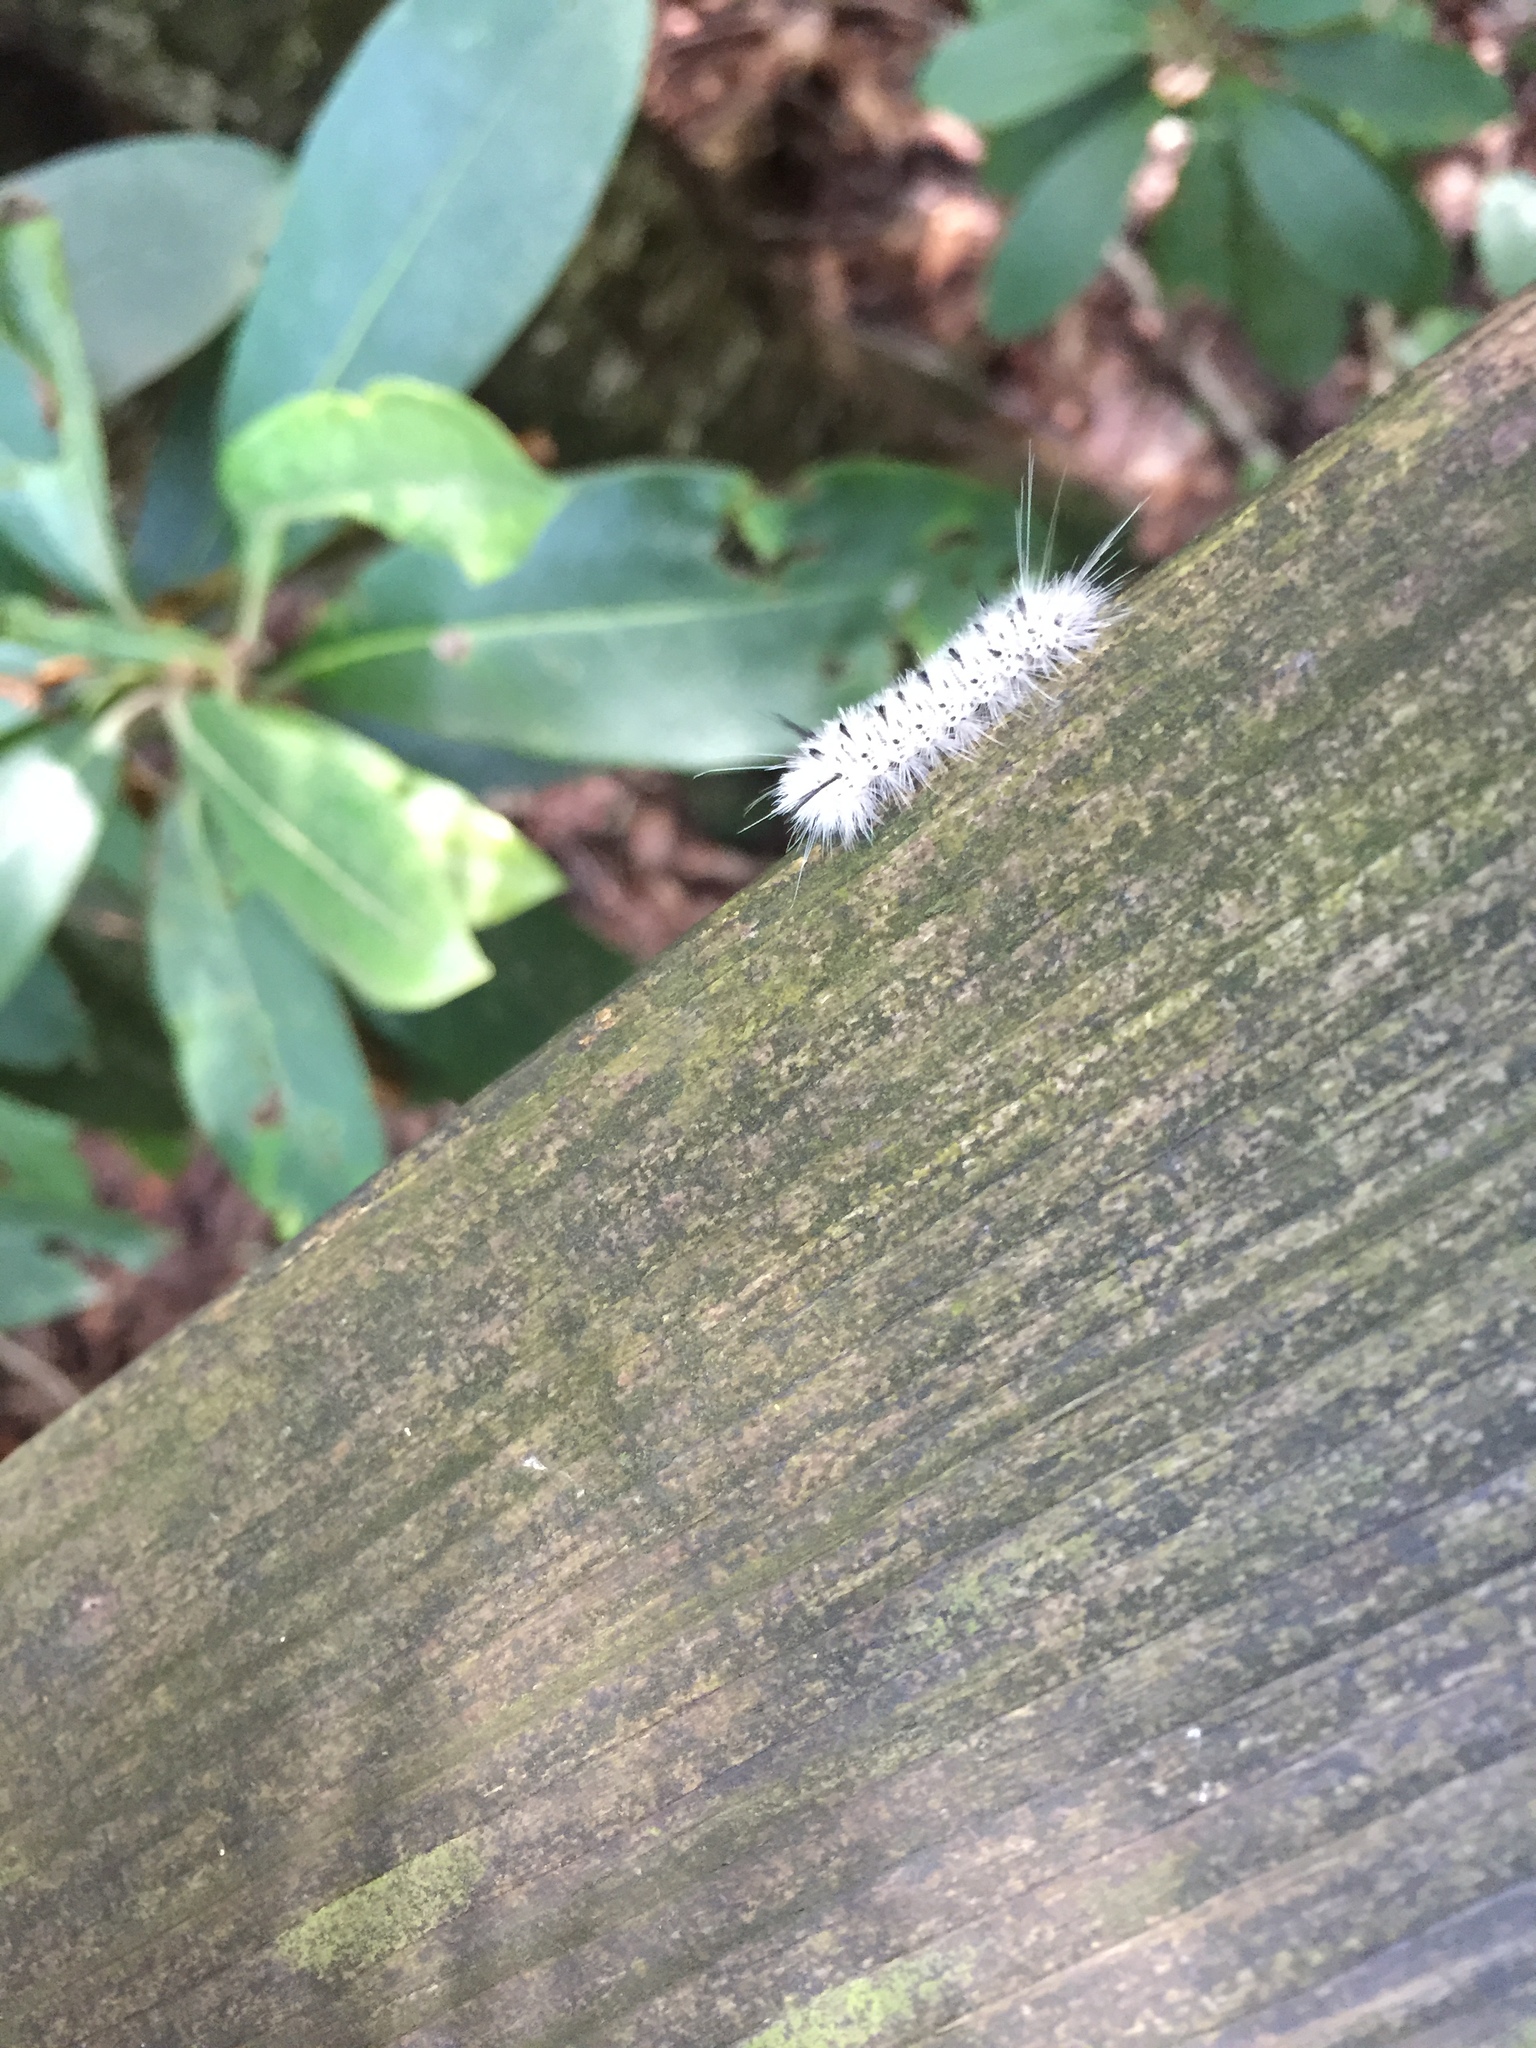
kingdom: Animalia
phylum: Arthropoda
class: Insecta
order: Lepidoptera
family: Erebidae
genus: Lophocampa
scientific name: Lophocampa caryae
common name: Hickory tussock moth
